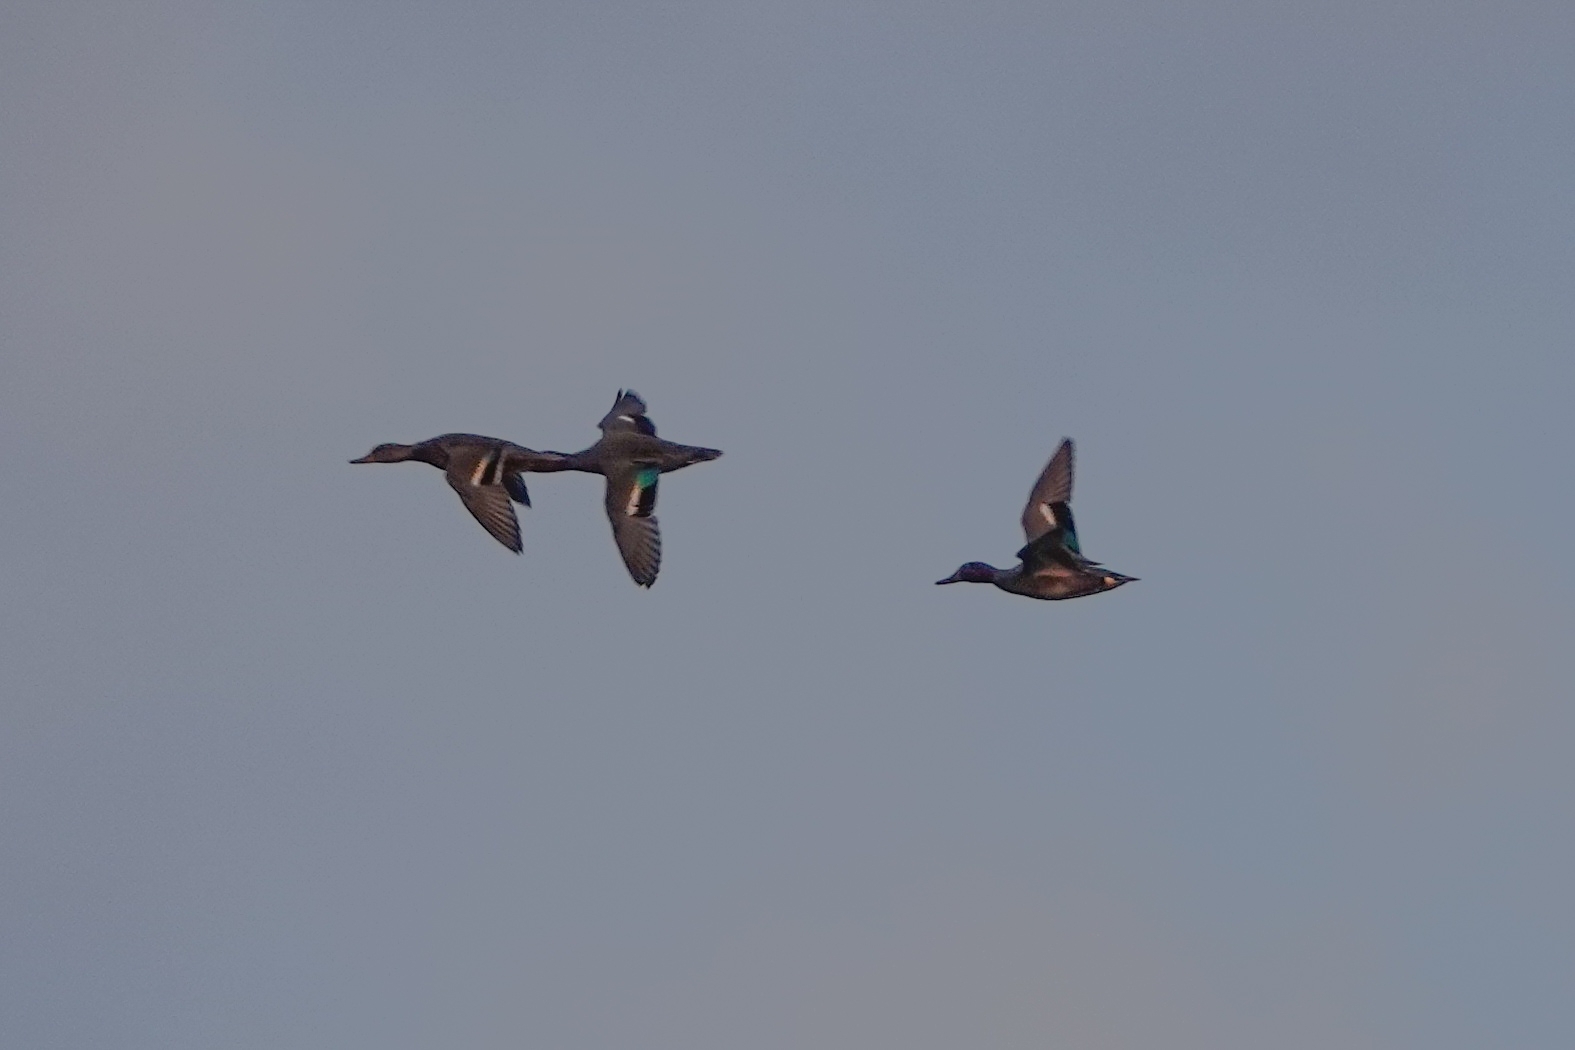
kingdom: Animalia
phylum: Chordata
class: Aves
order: Anseriformes
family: Anatidae
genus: Anas
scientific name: Anas crecca
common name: Eurasian teal
